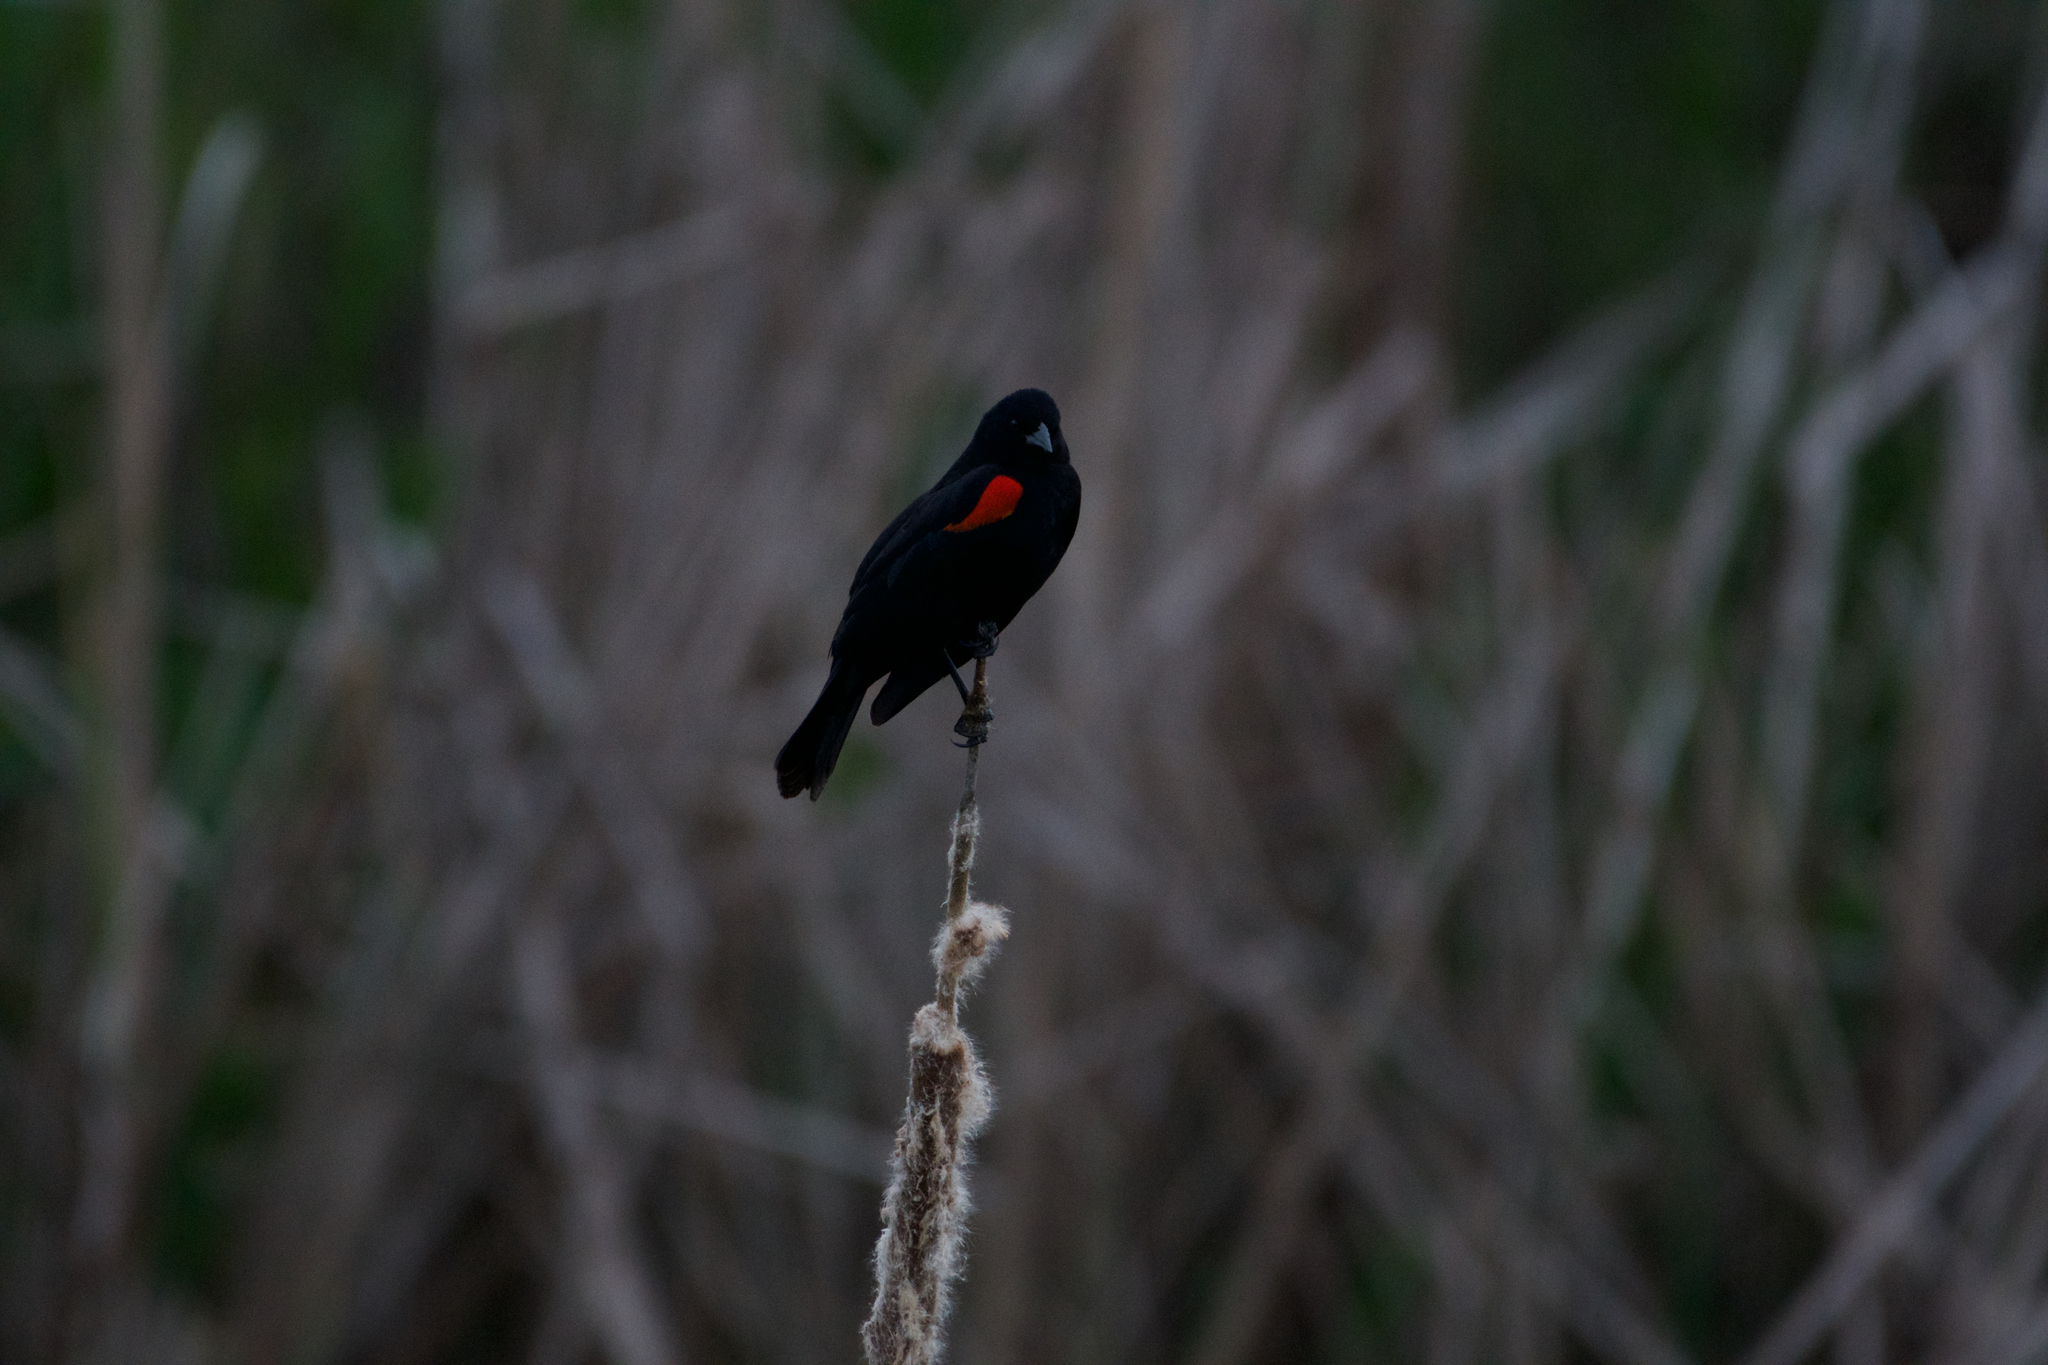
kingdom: Animalia
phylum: Chordata
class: Aves
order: Passeriformes
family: Icteridae
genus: Agelaius
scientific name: Agelaius phoeniceus
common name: Red-winged blackbird
